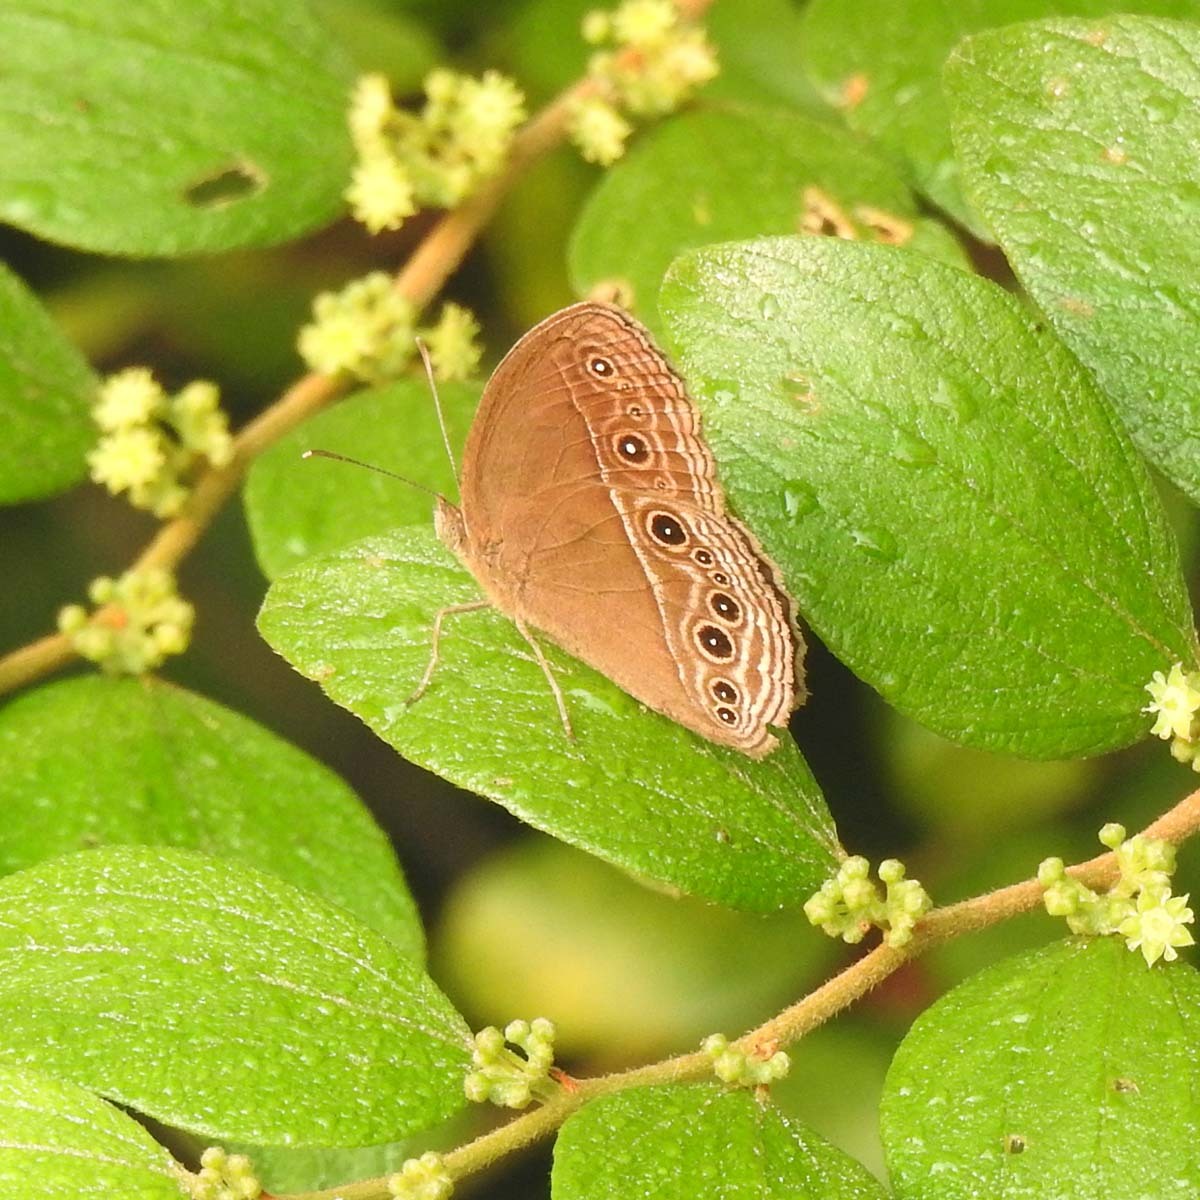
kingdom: Animalia
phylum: Arthropoda
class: Insecta
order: Lepidoptera
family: Nymphalidae
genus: Mycalesis
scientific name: Mycalesis perseus
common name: Dingy bushbrown
